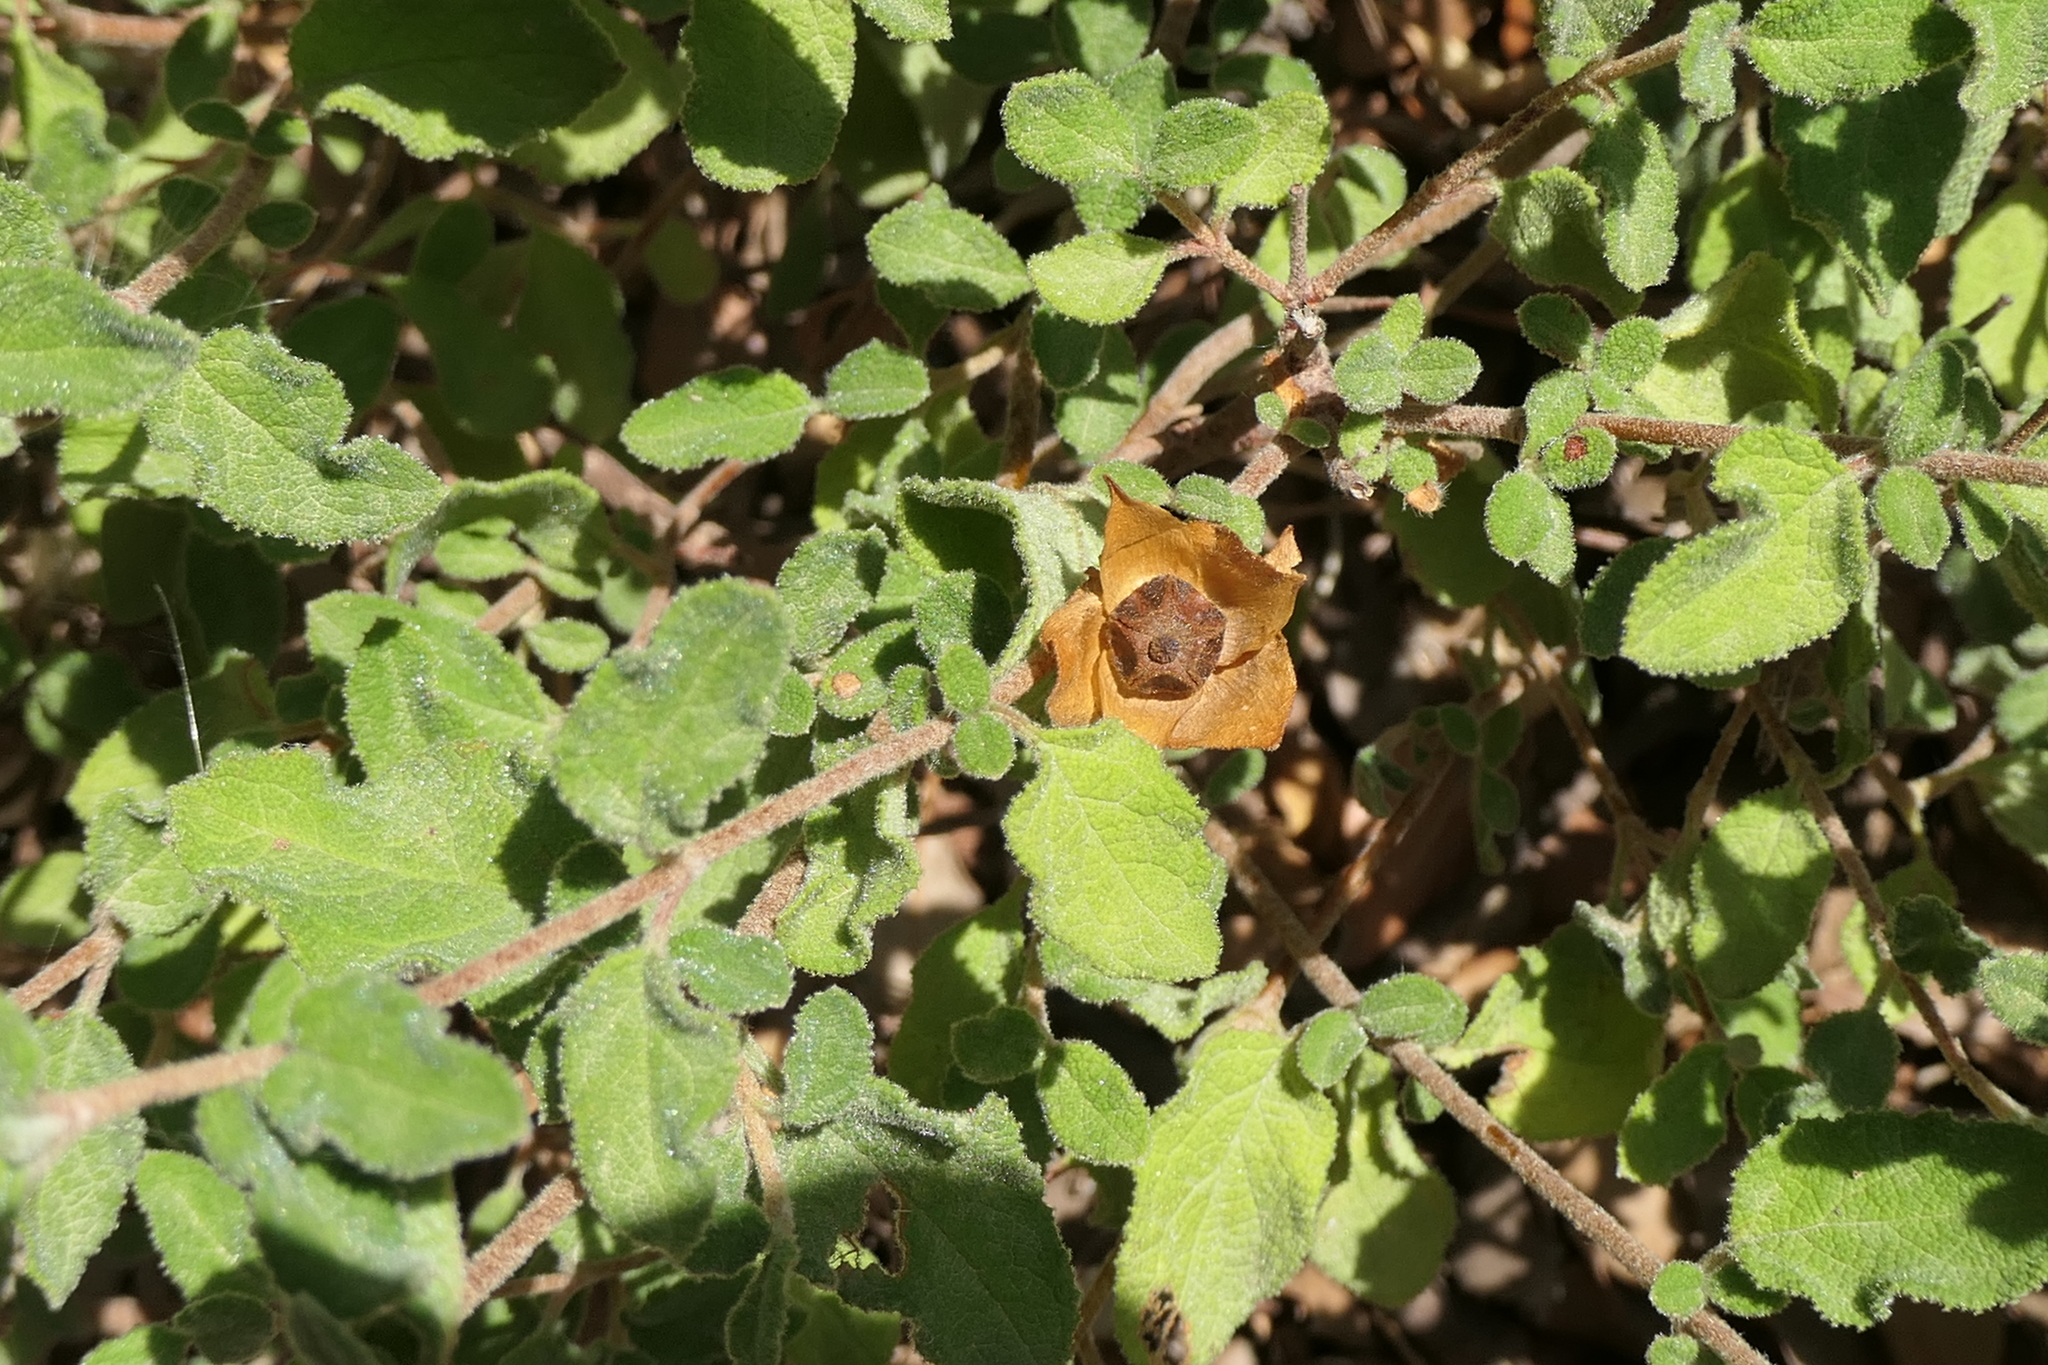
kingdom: Plantae
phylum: Tracheophyta
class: Magnoliopsida
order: Malvales
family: Cistaceae
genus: Cistus
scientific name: Cistus salviifolius
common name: Salvia cistus
